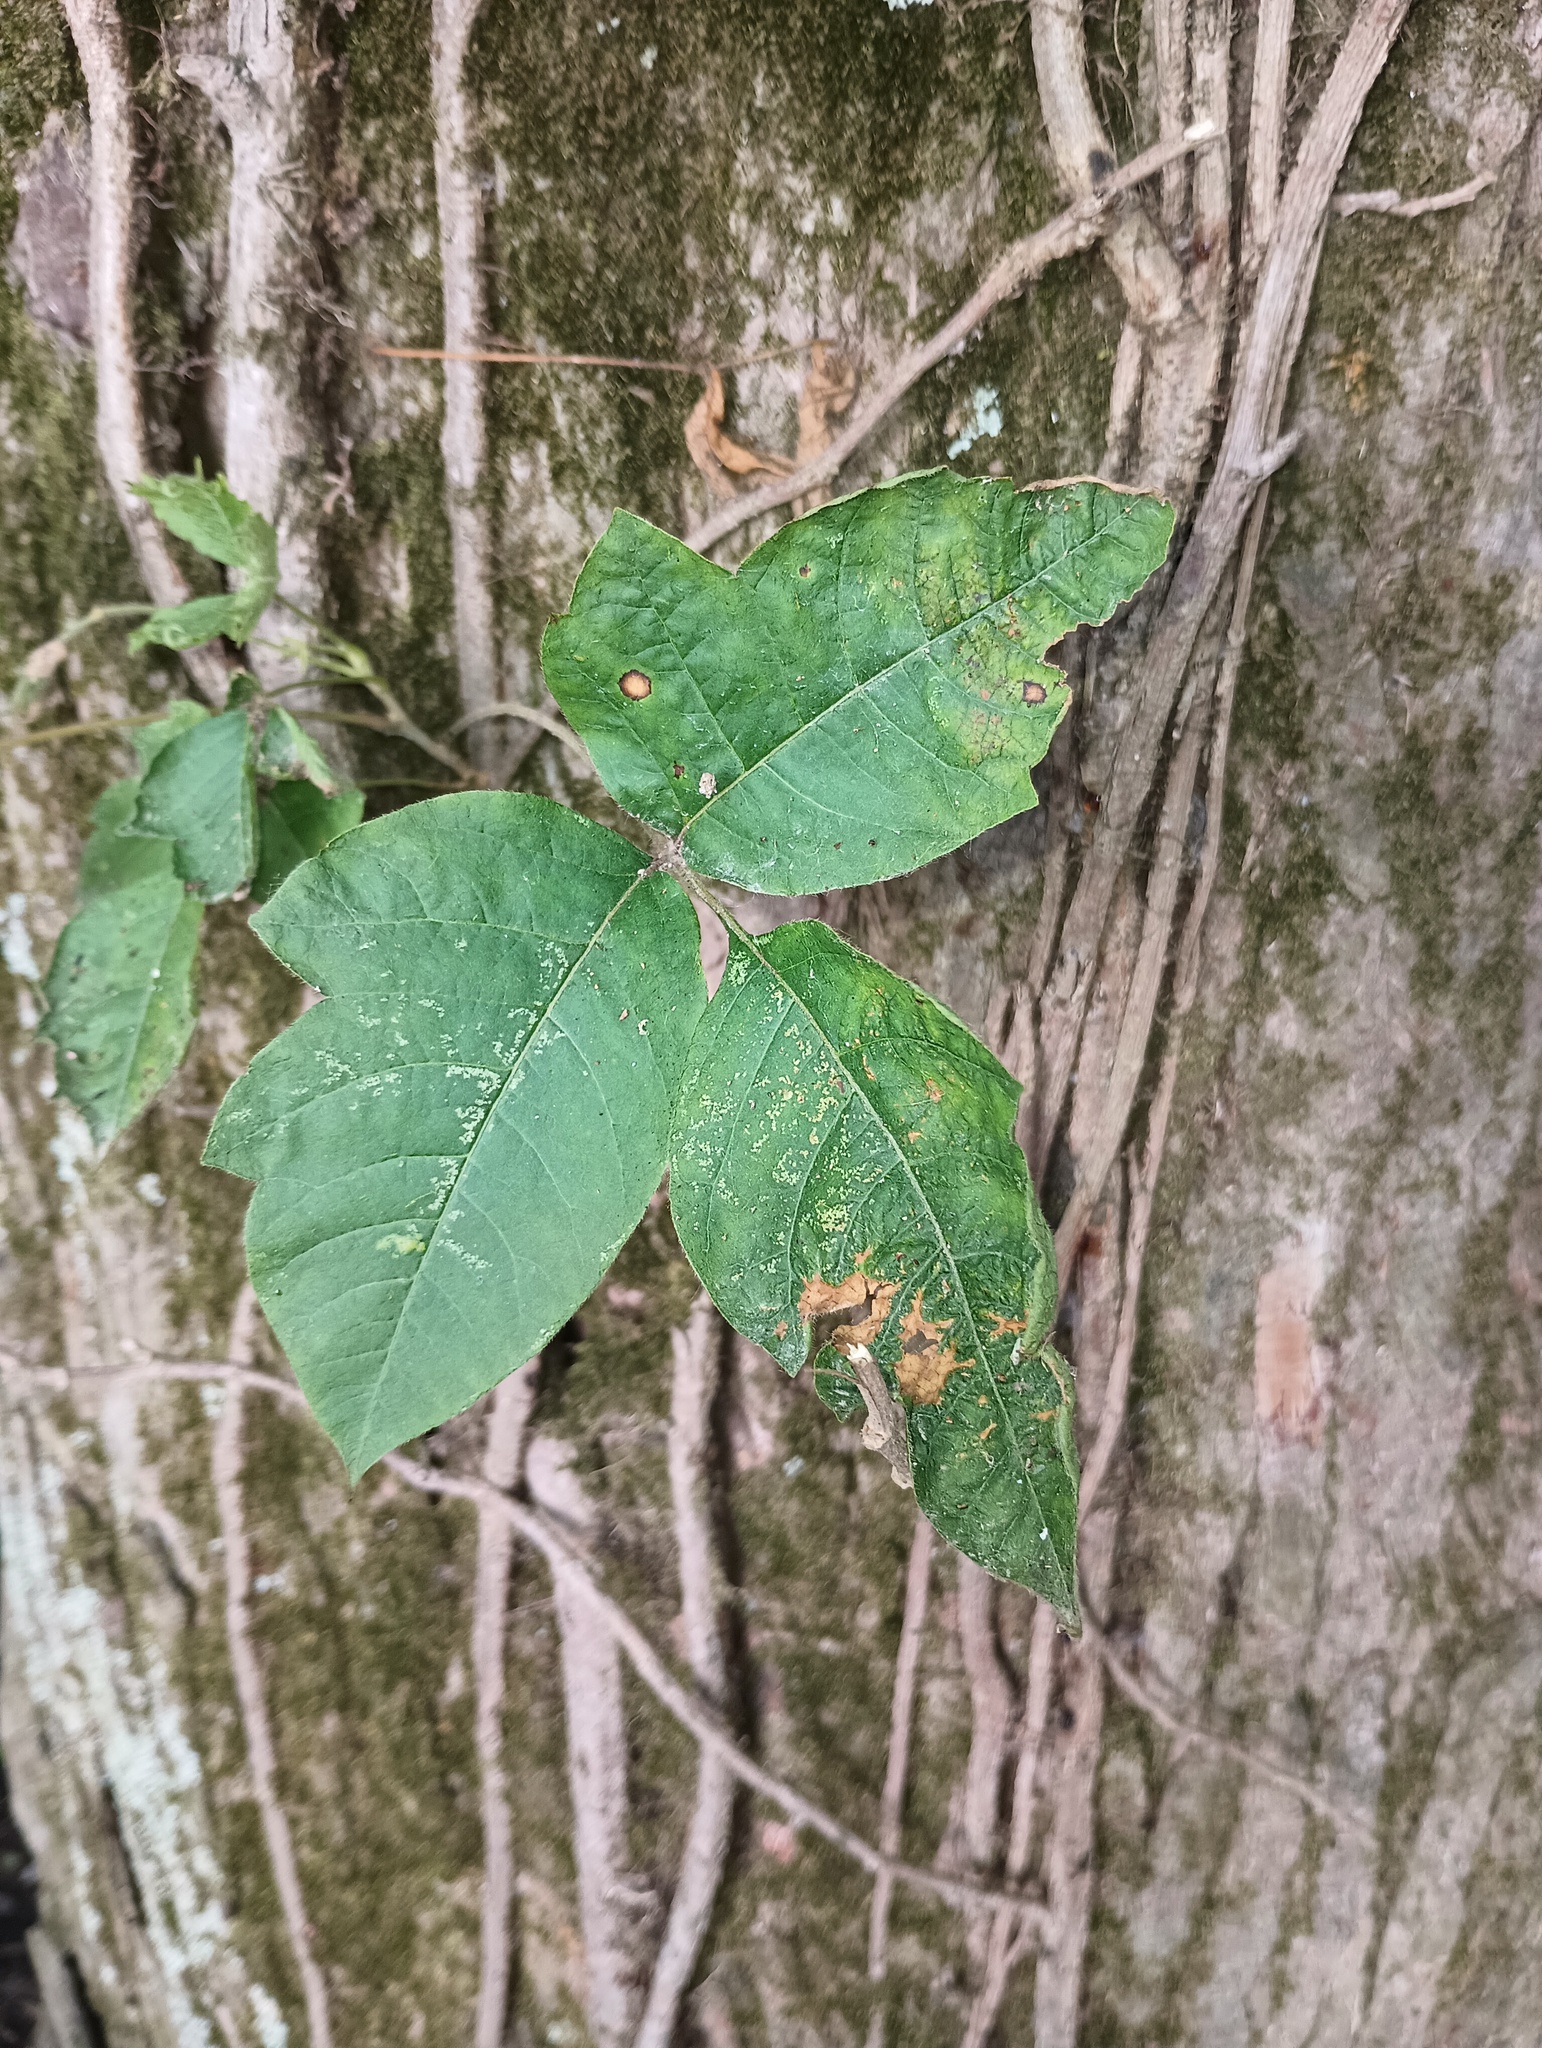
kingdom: Plantae
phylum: Tracheophyta
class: Magnoliopsida
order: Sapindales
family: Anacardiaceae
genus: Toxicodendron
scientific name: Toxicodendron radicans
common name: Poison ivy
